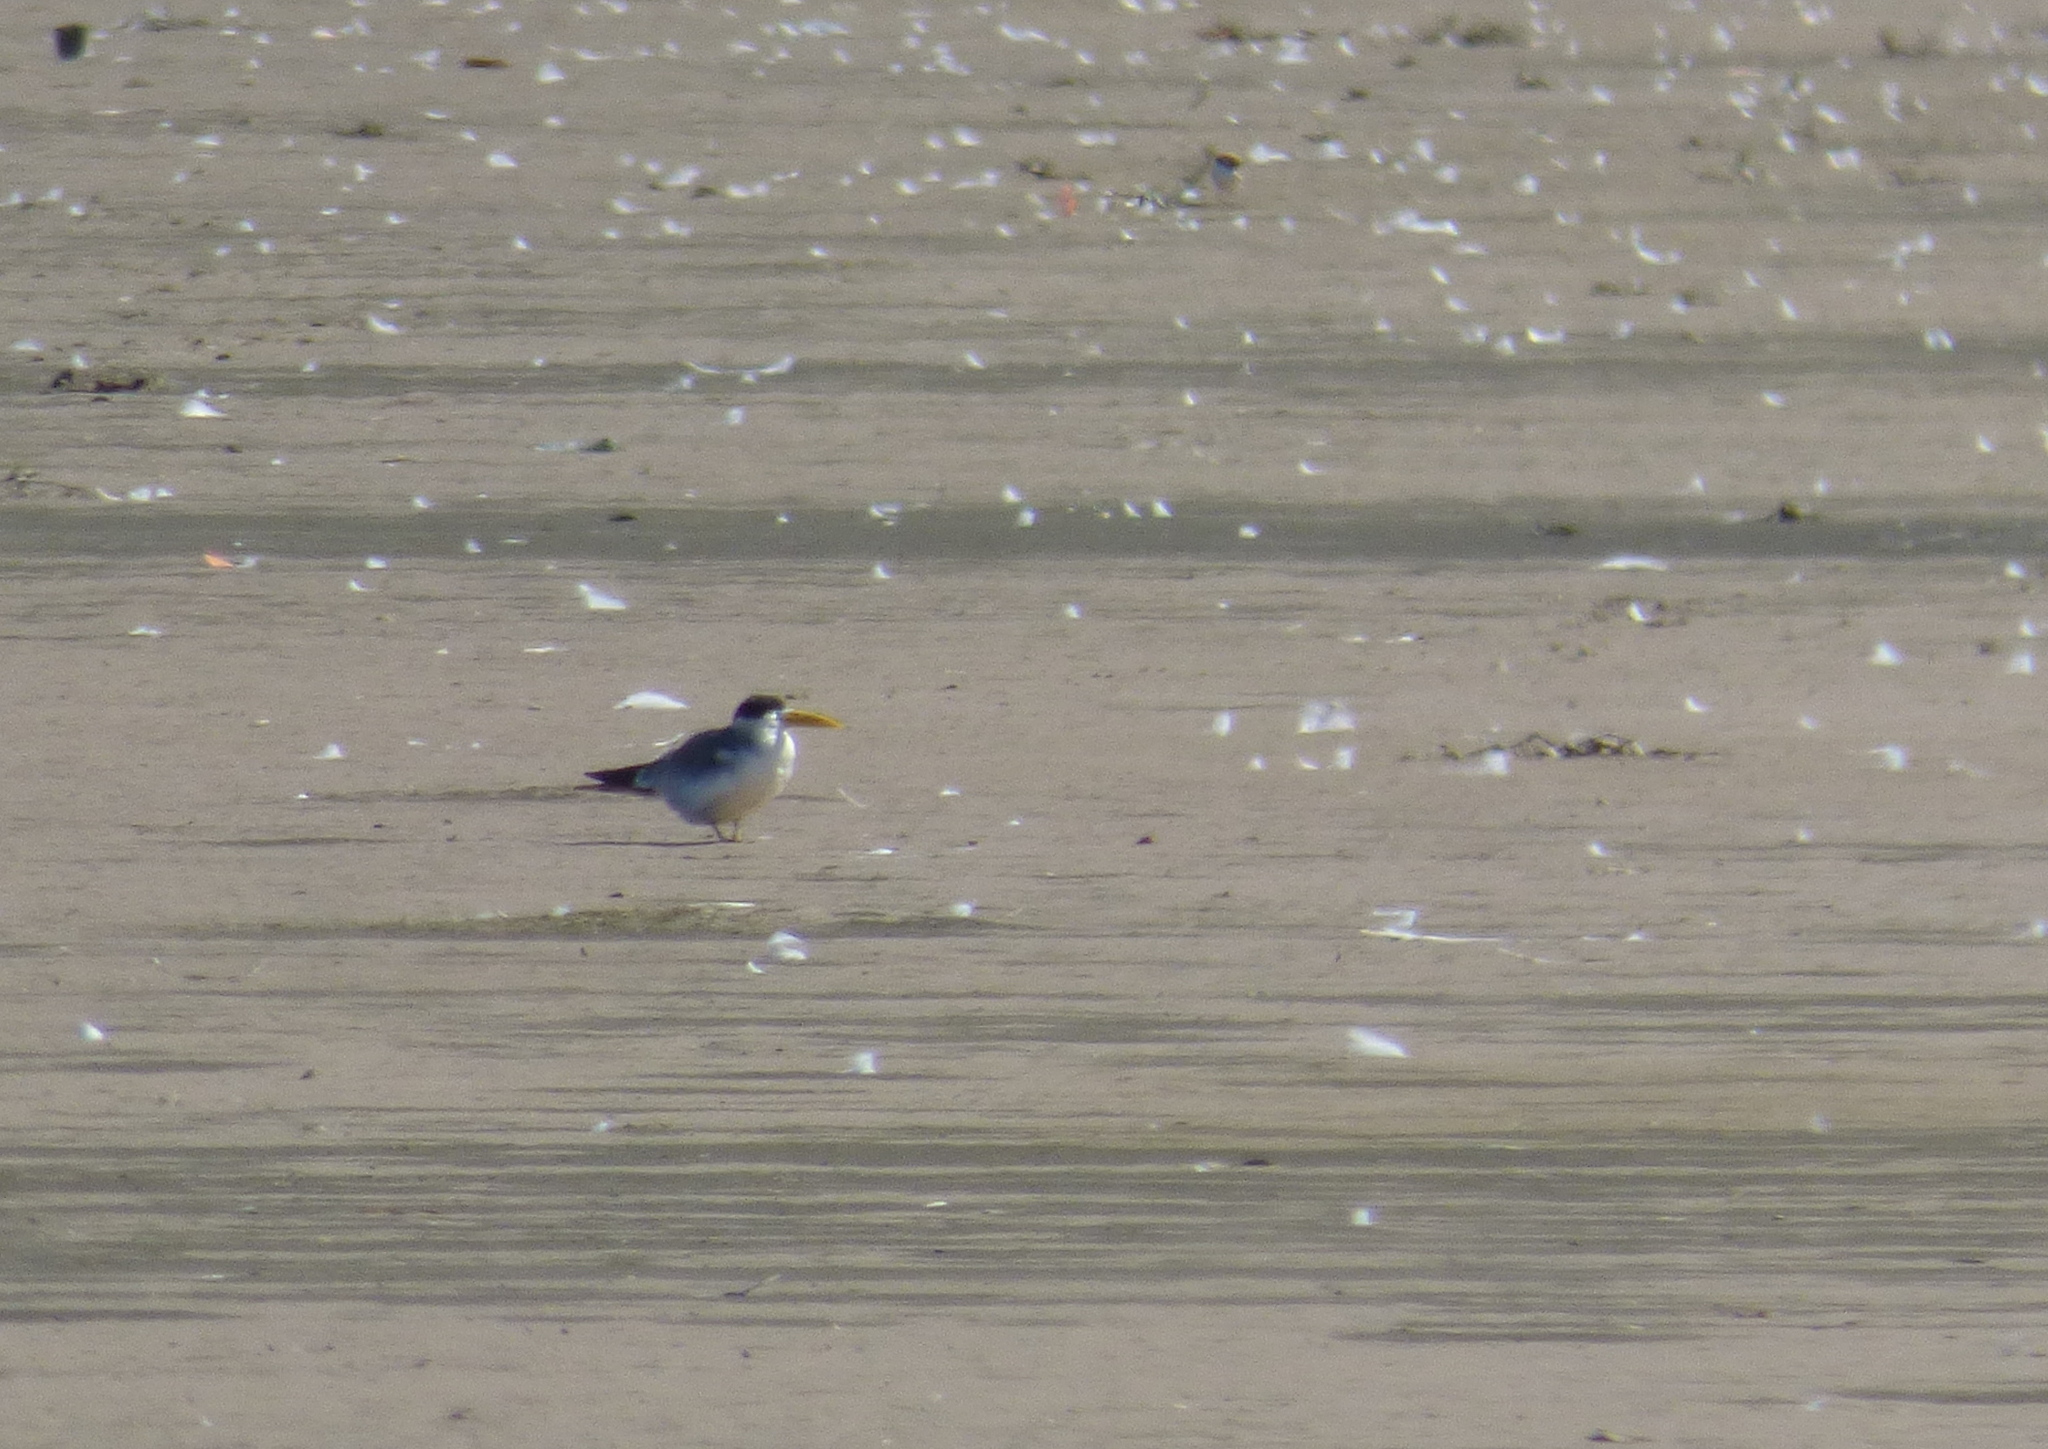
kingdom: Animalia
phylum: Chordata
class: Aves
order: Charadriiformes
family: Laridae
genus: Phaetusa
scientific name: Phaetusa simplex
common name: Large-billed tern
